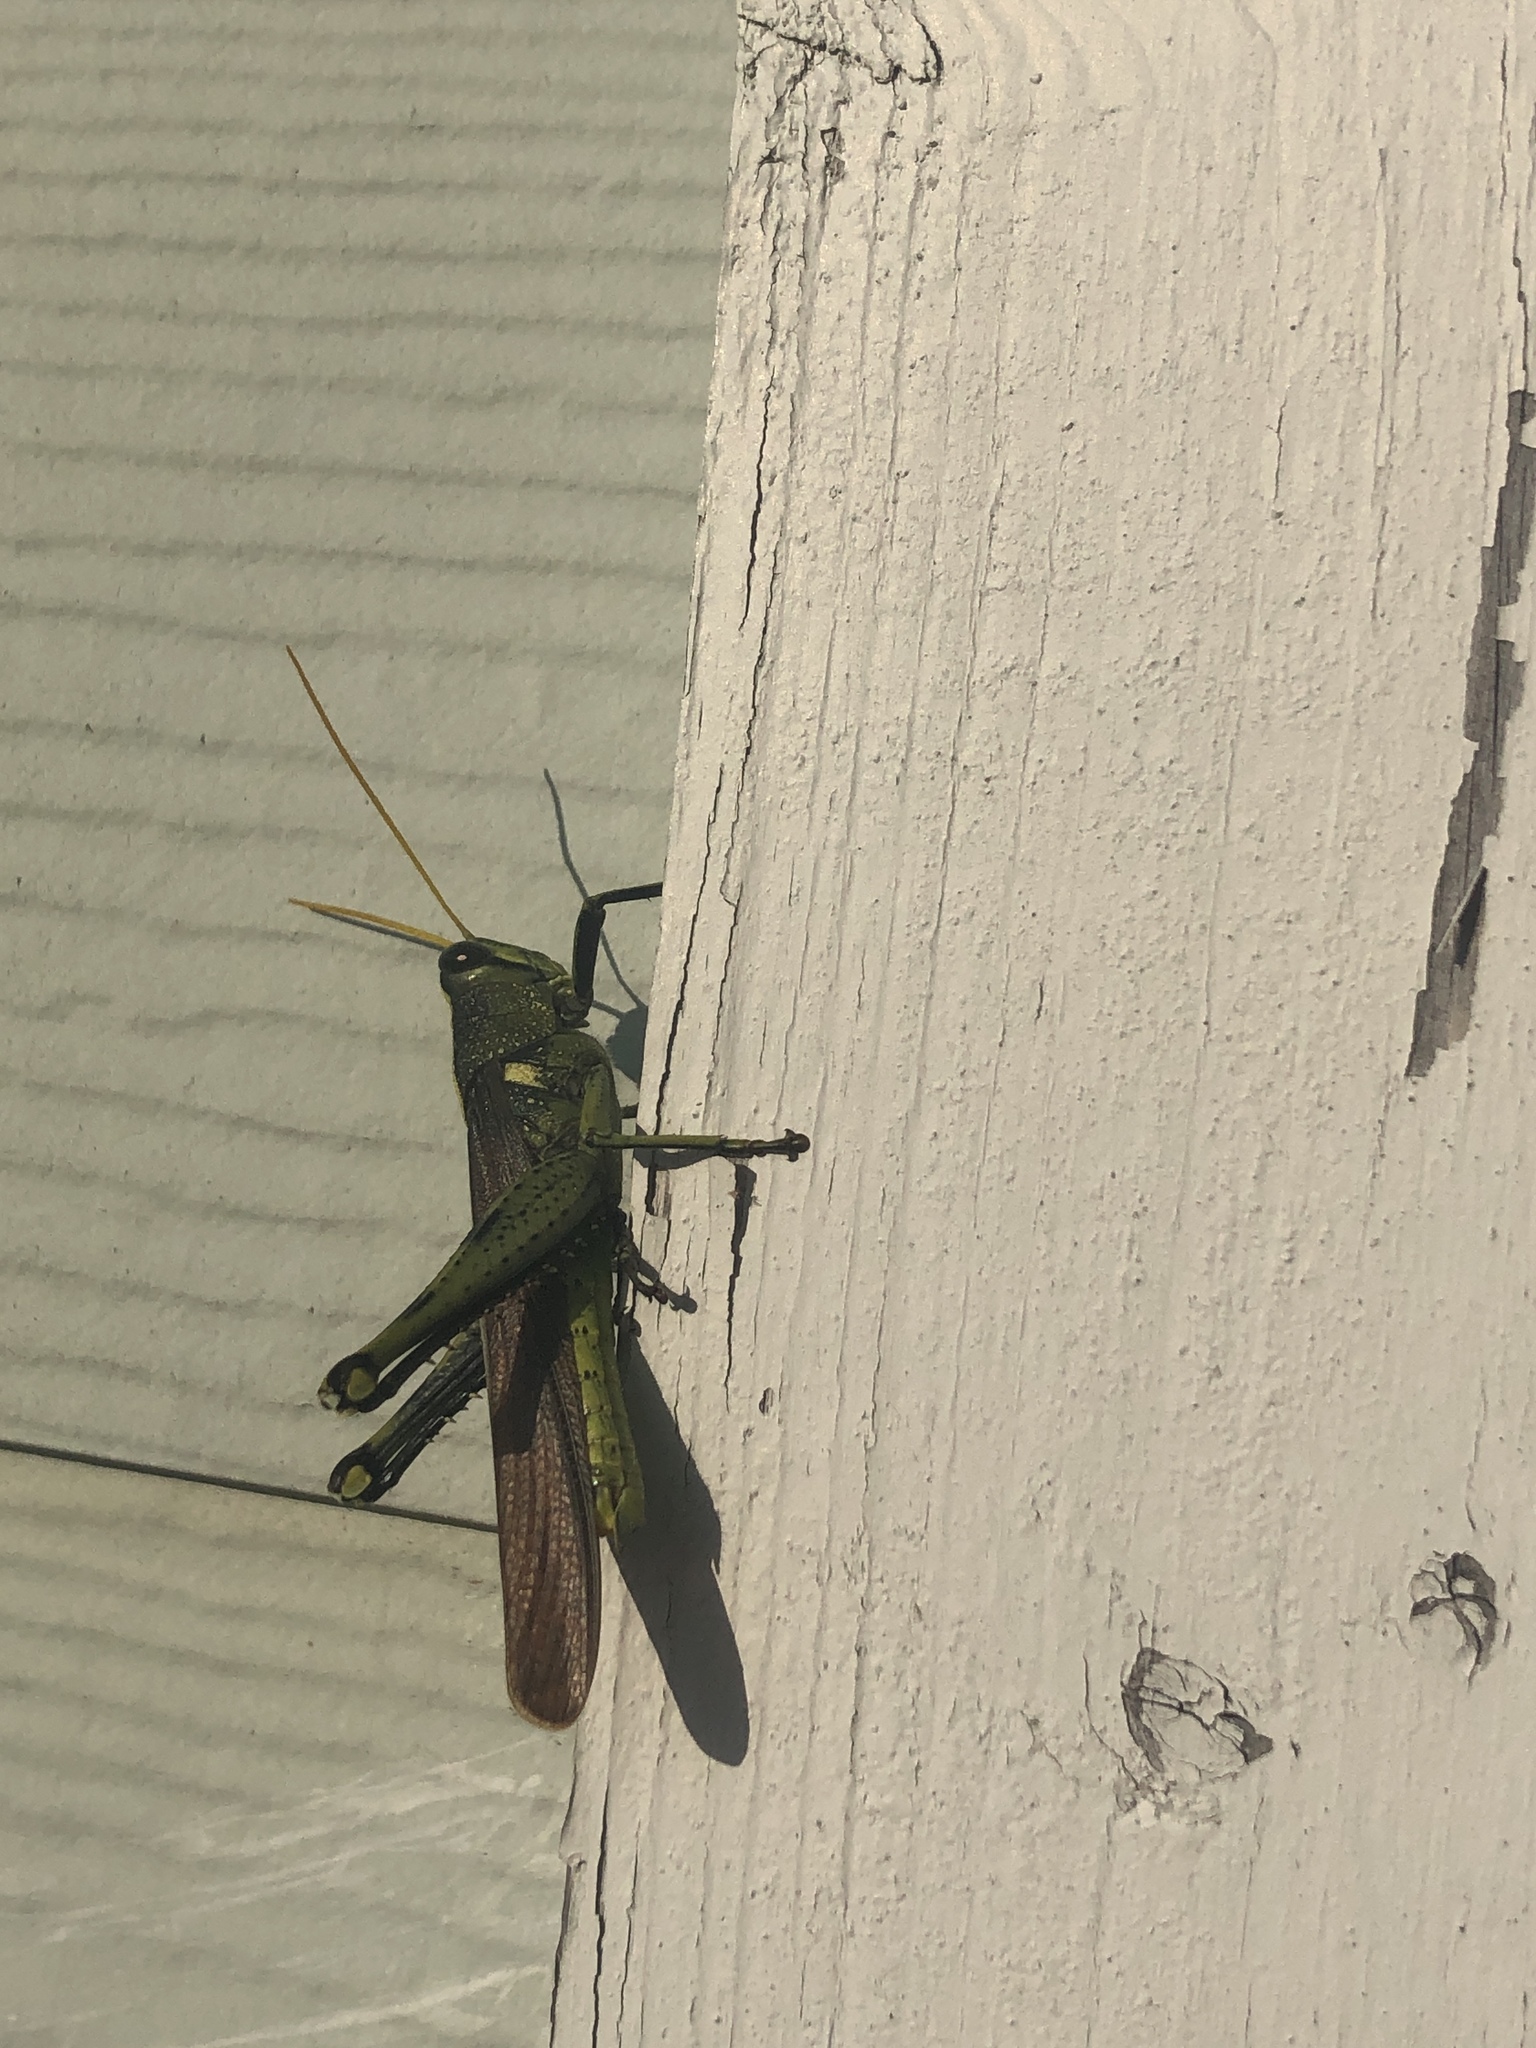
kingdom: Animalia
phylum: Arthropoda
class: Insecta
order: Orthoptera
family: Acrididae
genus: Schistocerca
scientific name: Schistocerca obscura
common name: Obscure bird grasshopper
